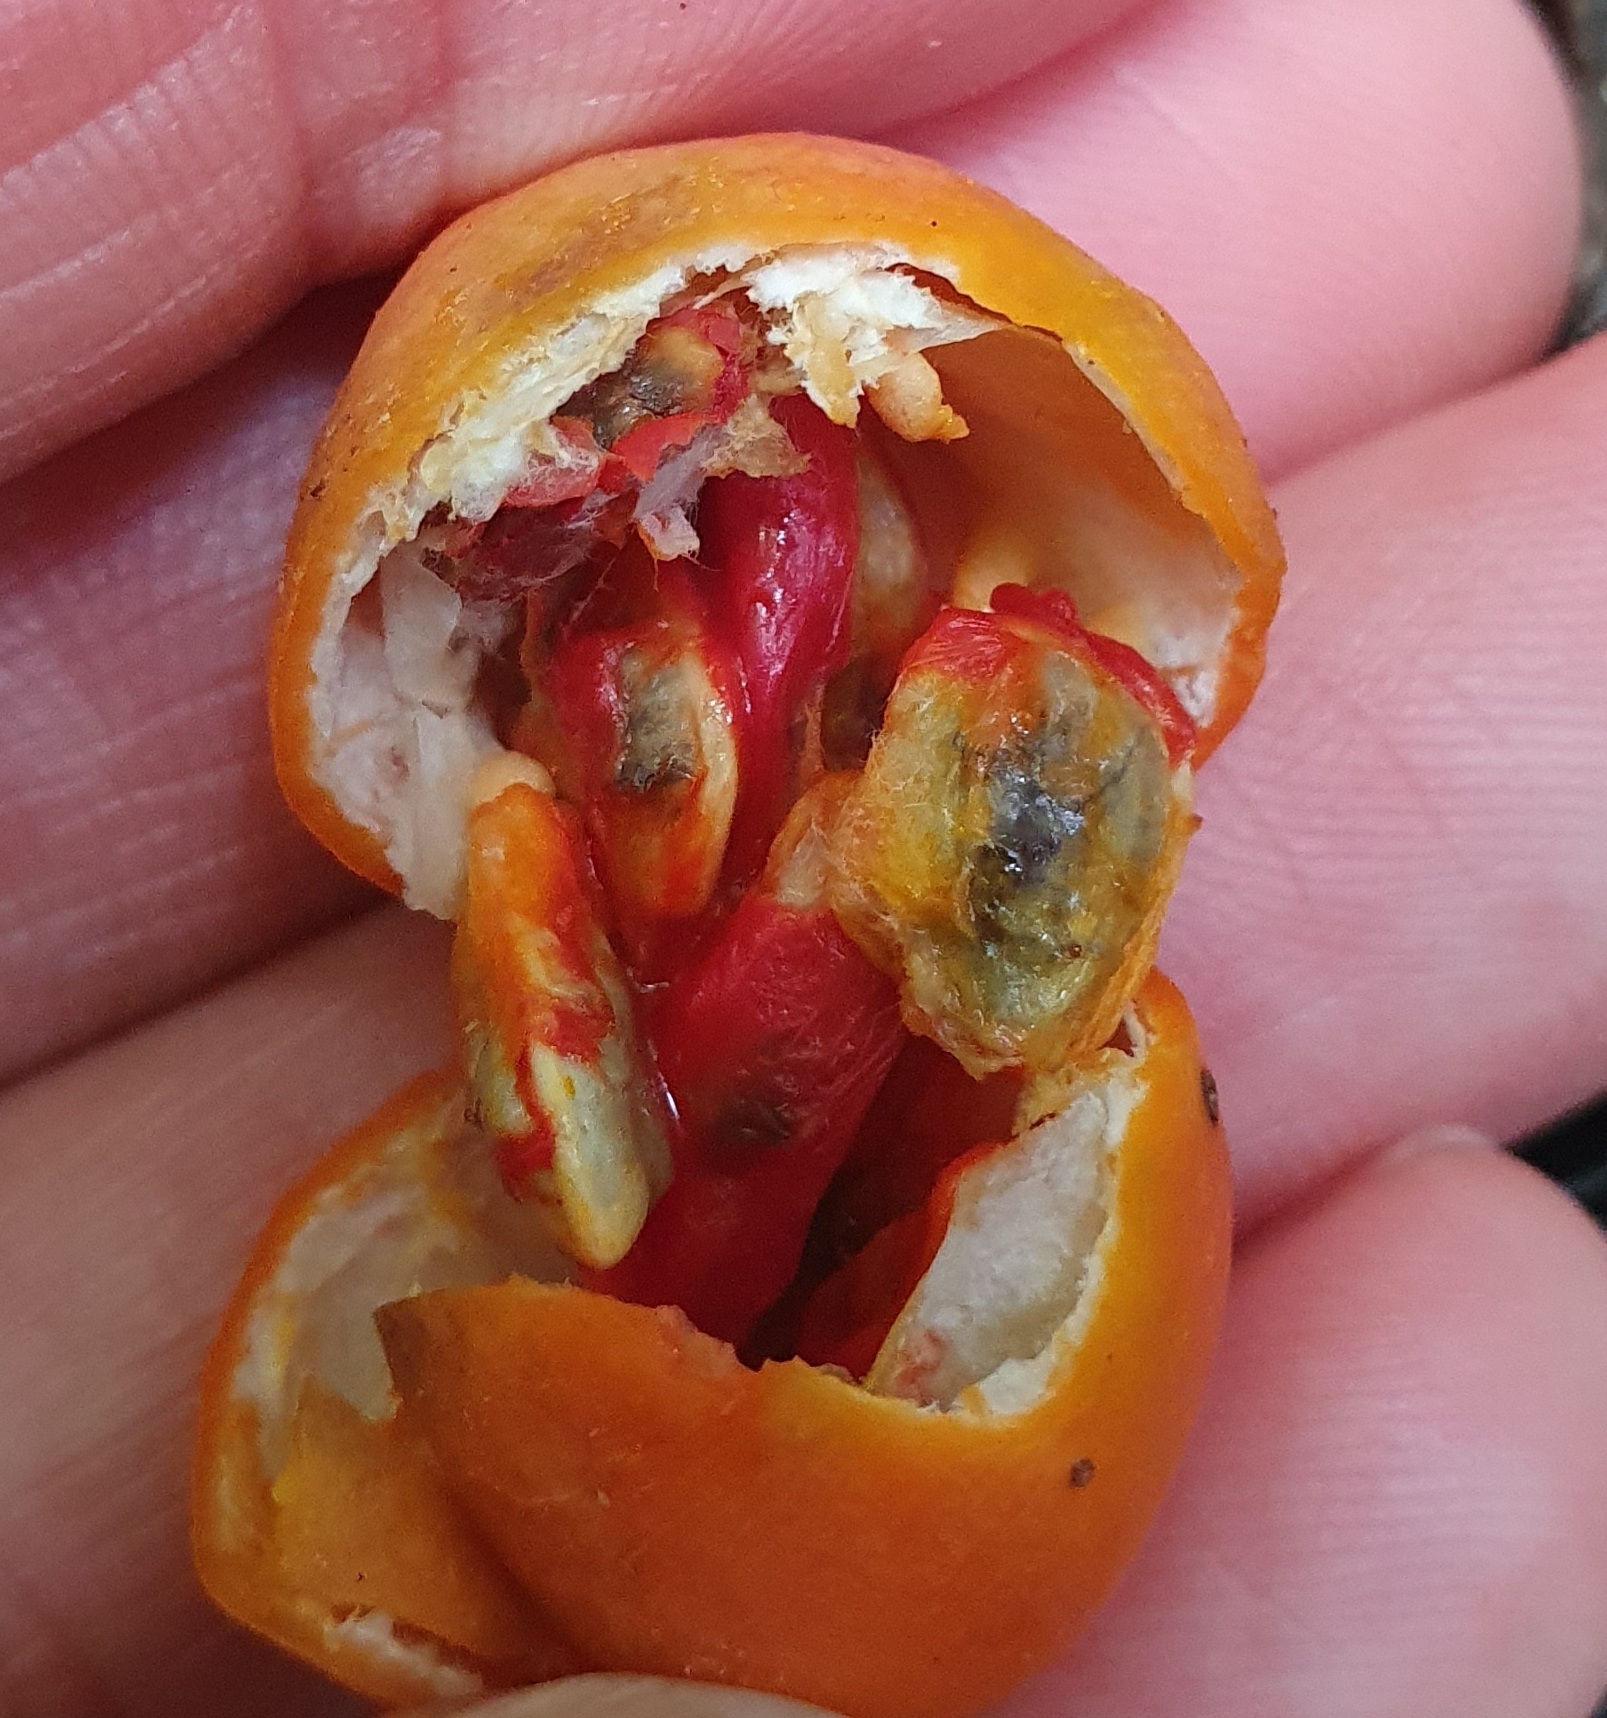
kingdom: Plantae
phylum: Tracheophyta
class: Magnoliopsida
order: Malpighiales
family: Passifloraceae
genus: Passiflora
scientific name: Passiflora tetrandra
